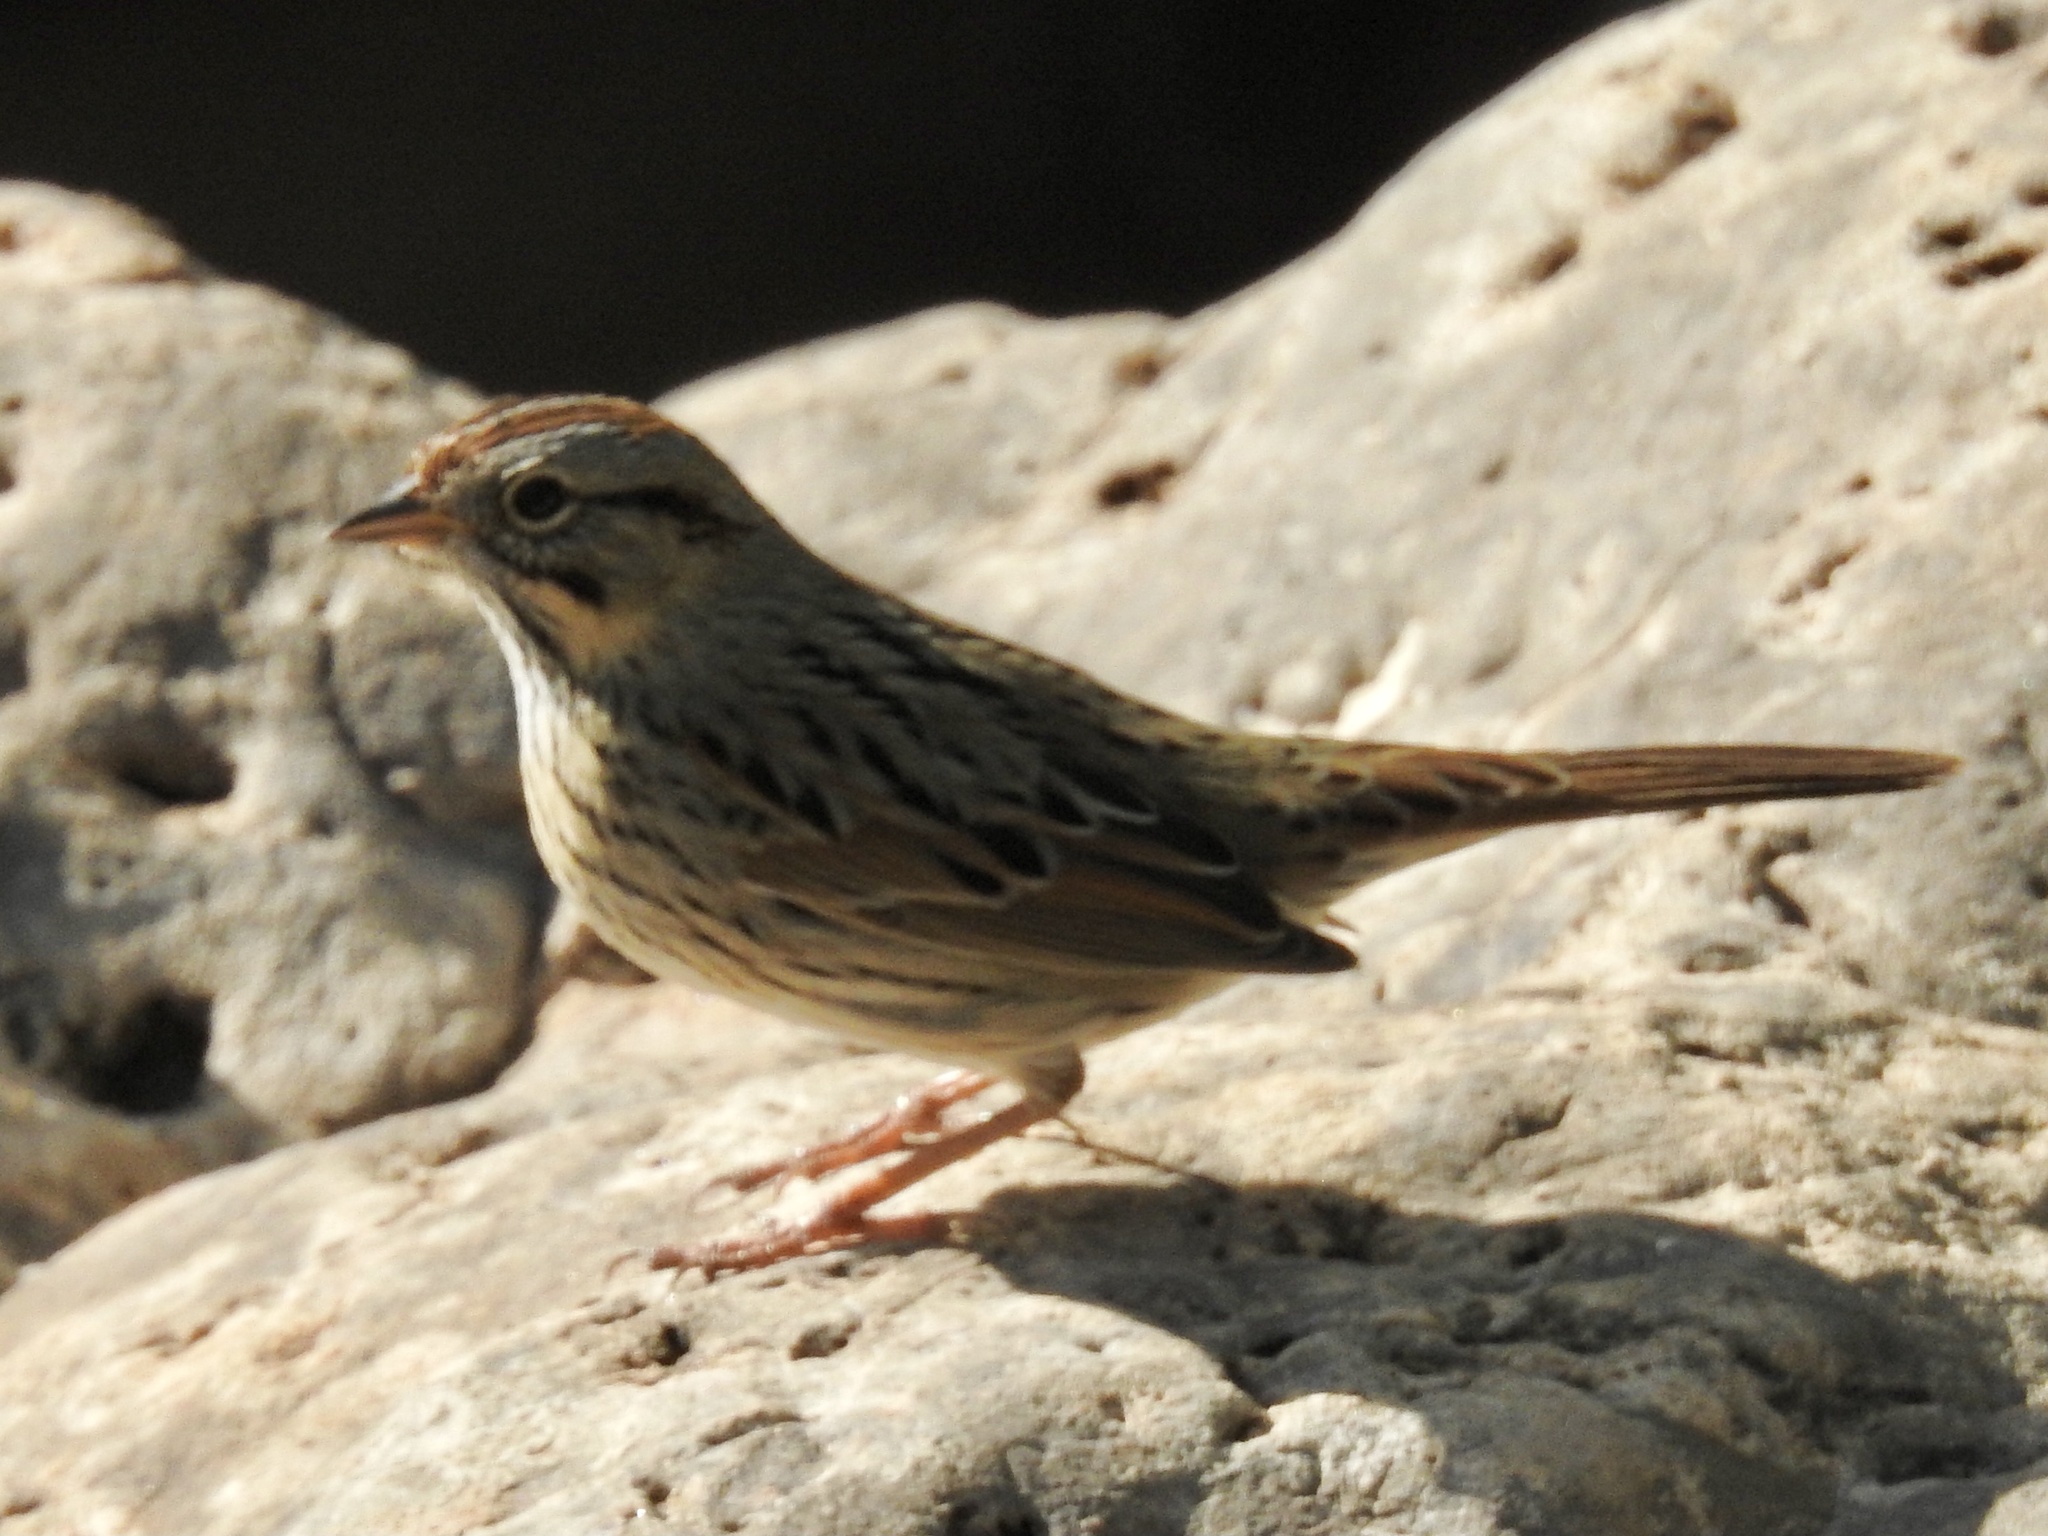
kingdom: Animalia
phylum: Chordata
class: Aves
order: Passeriformes
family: Passerellidae
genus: Melospiza
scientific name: Melospiza lincolnii
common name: Lincoln's sparrow
